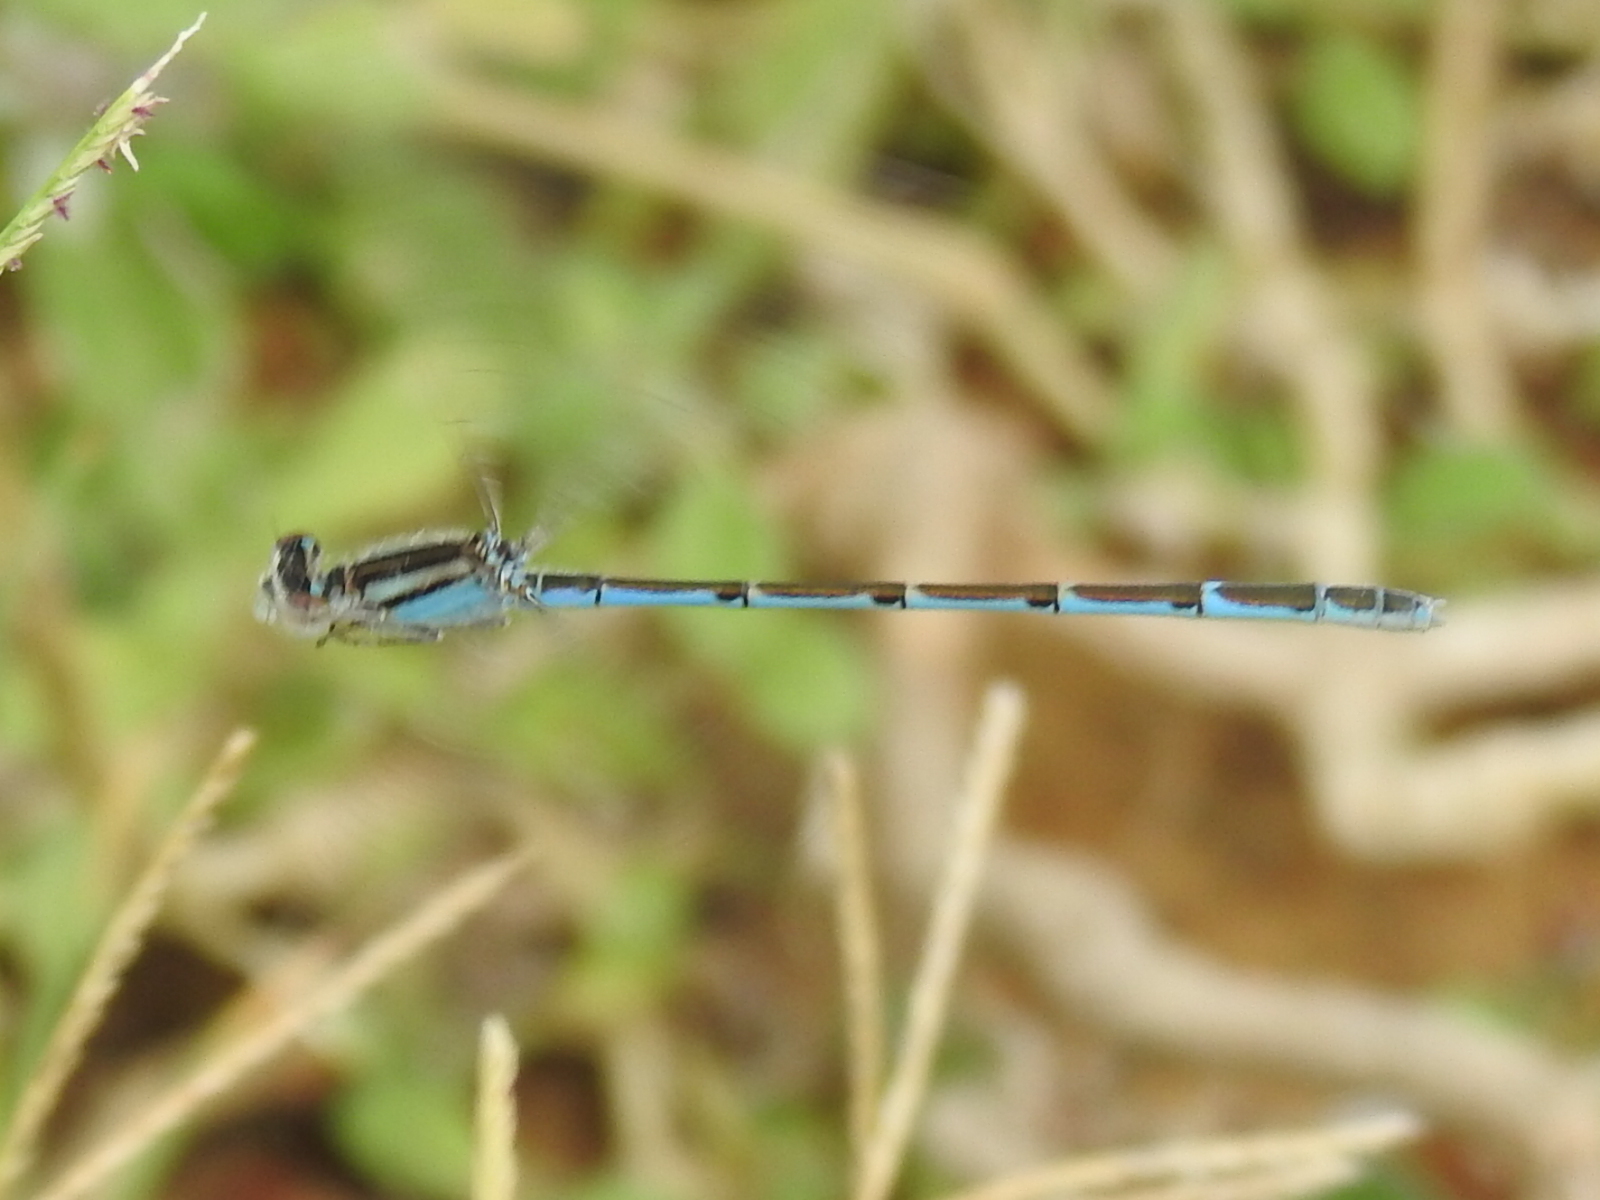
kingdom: Animalia
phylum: Arthropoda
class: Insecta
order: Odonata
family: Coenagrionidae
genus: Enallagma
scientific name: Enallagma civile
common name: Damselfly
